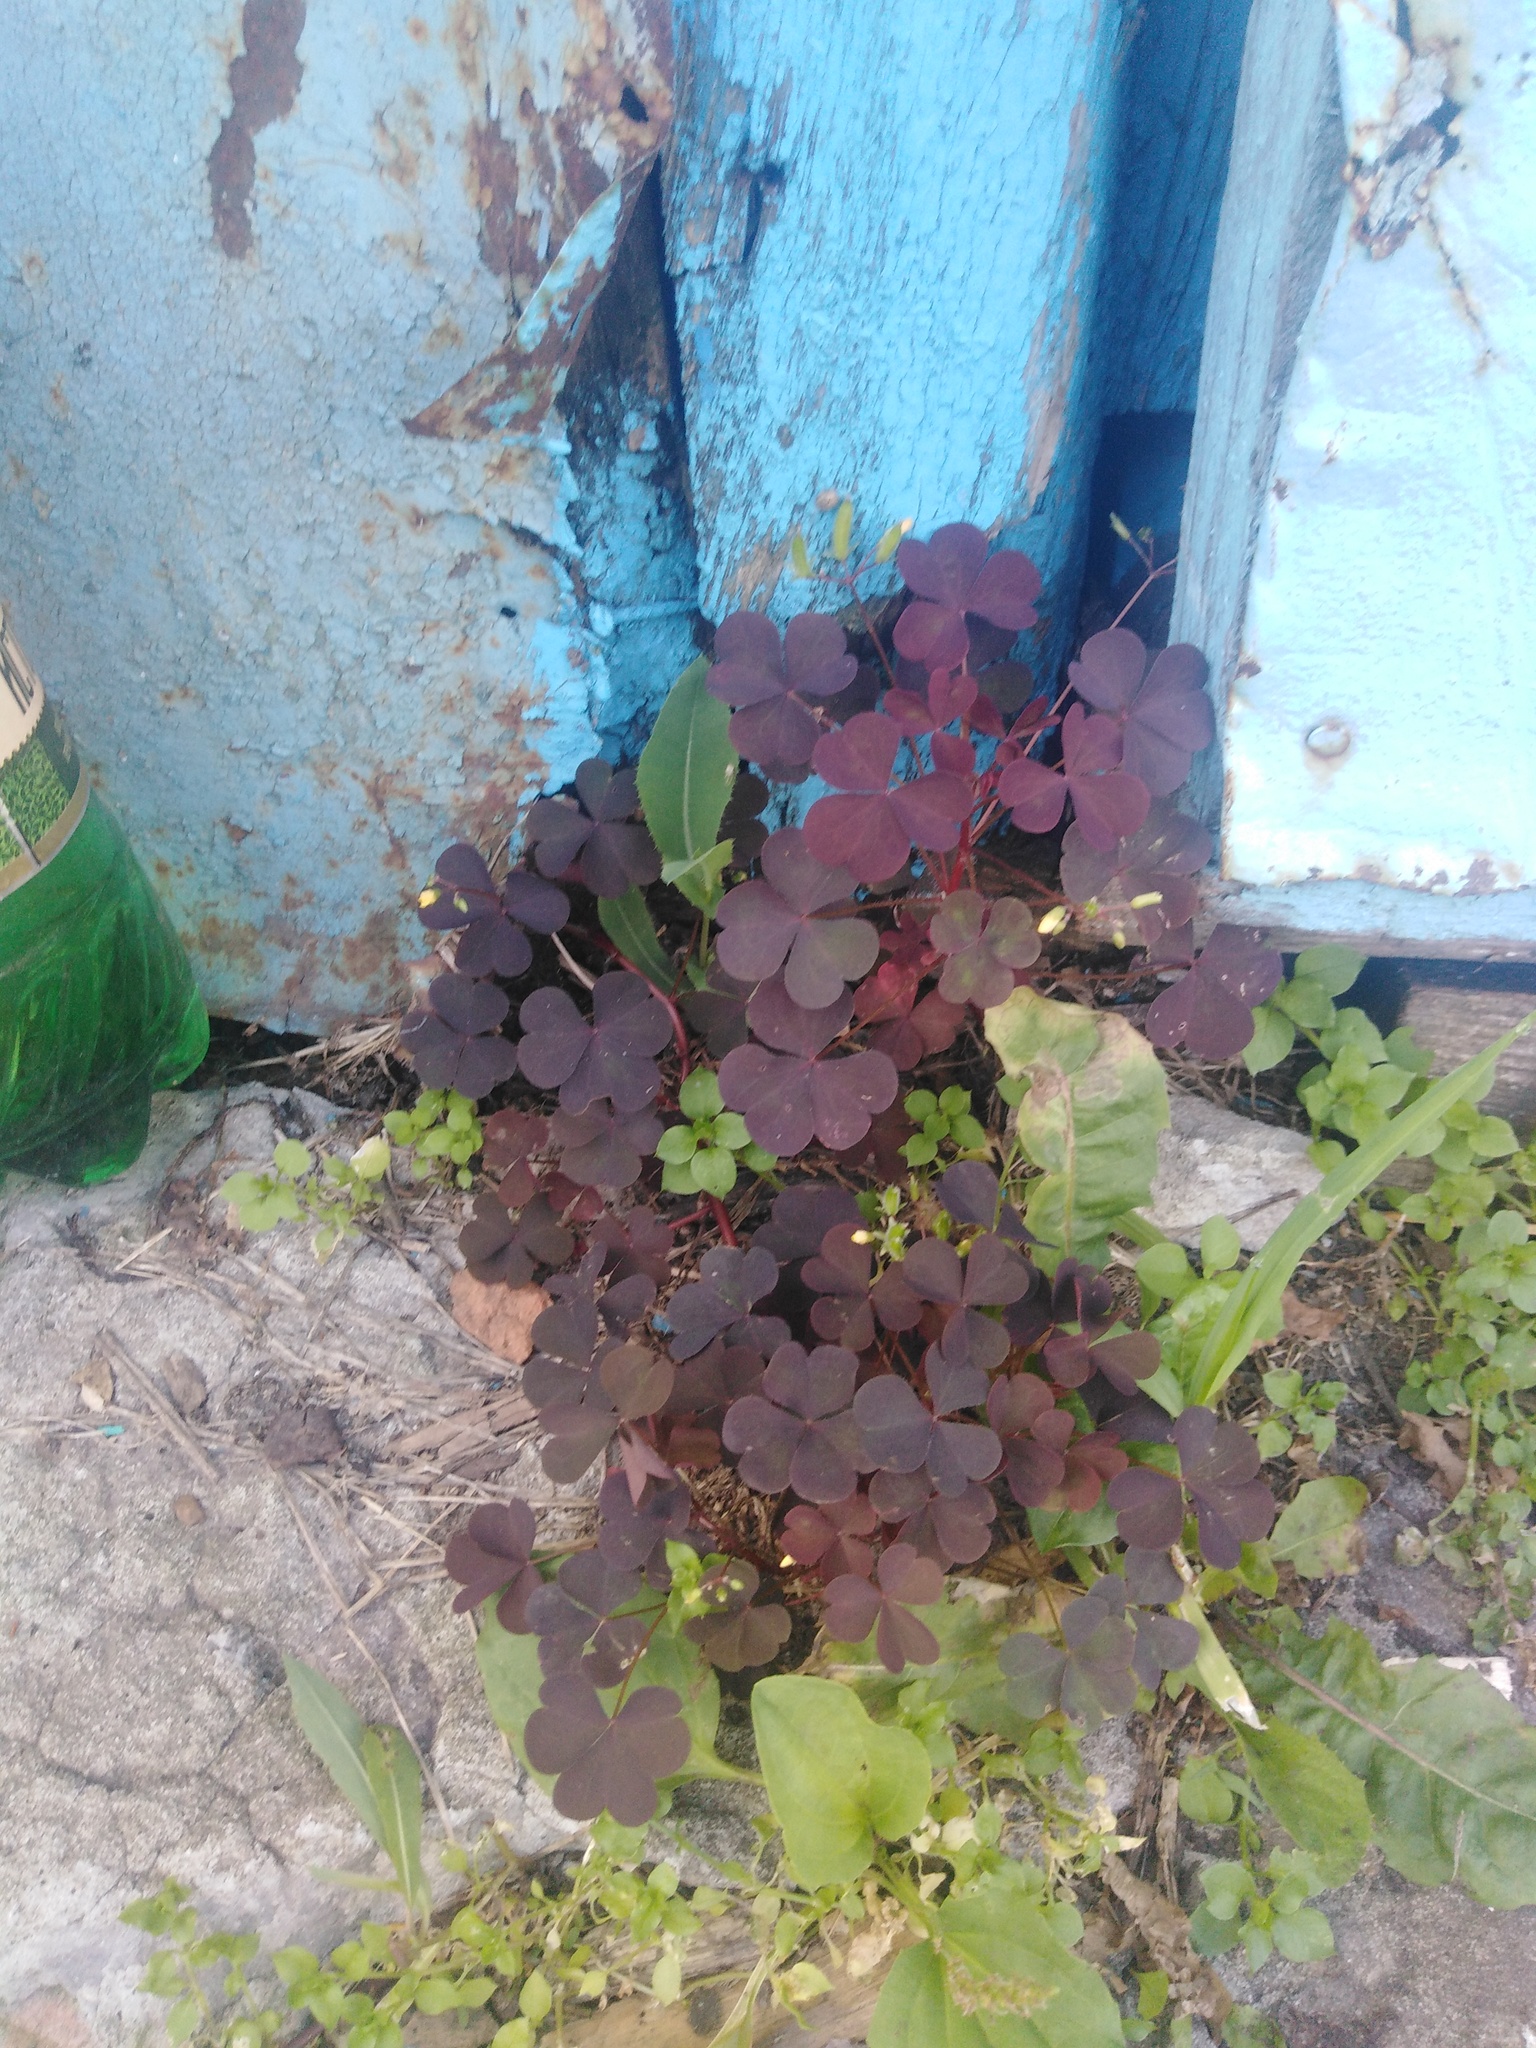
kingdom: Plantae
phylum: Tracheophyta
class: Magnoliopsida
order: Oxalidales
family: Oxalidaceae
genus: Oxalis
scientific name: Oxalis stricta
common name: Upright yellow-sorrel
